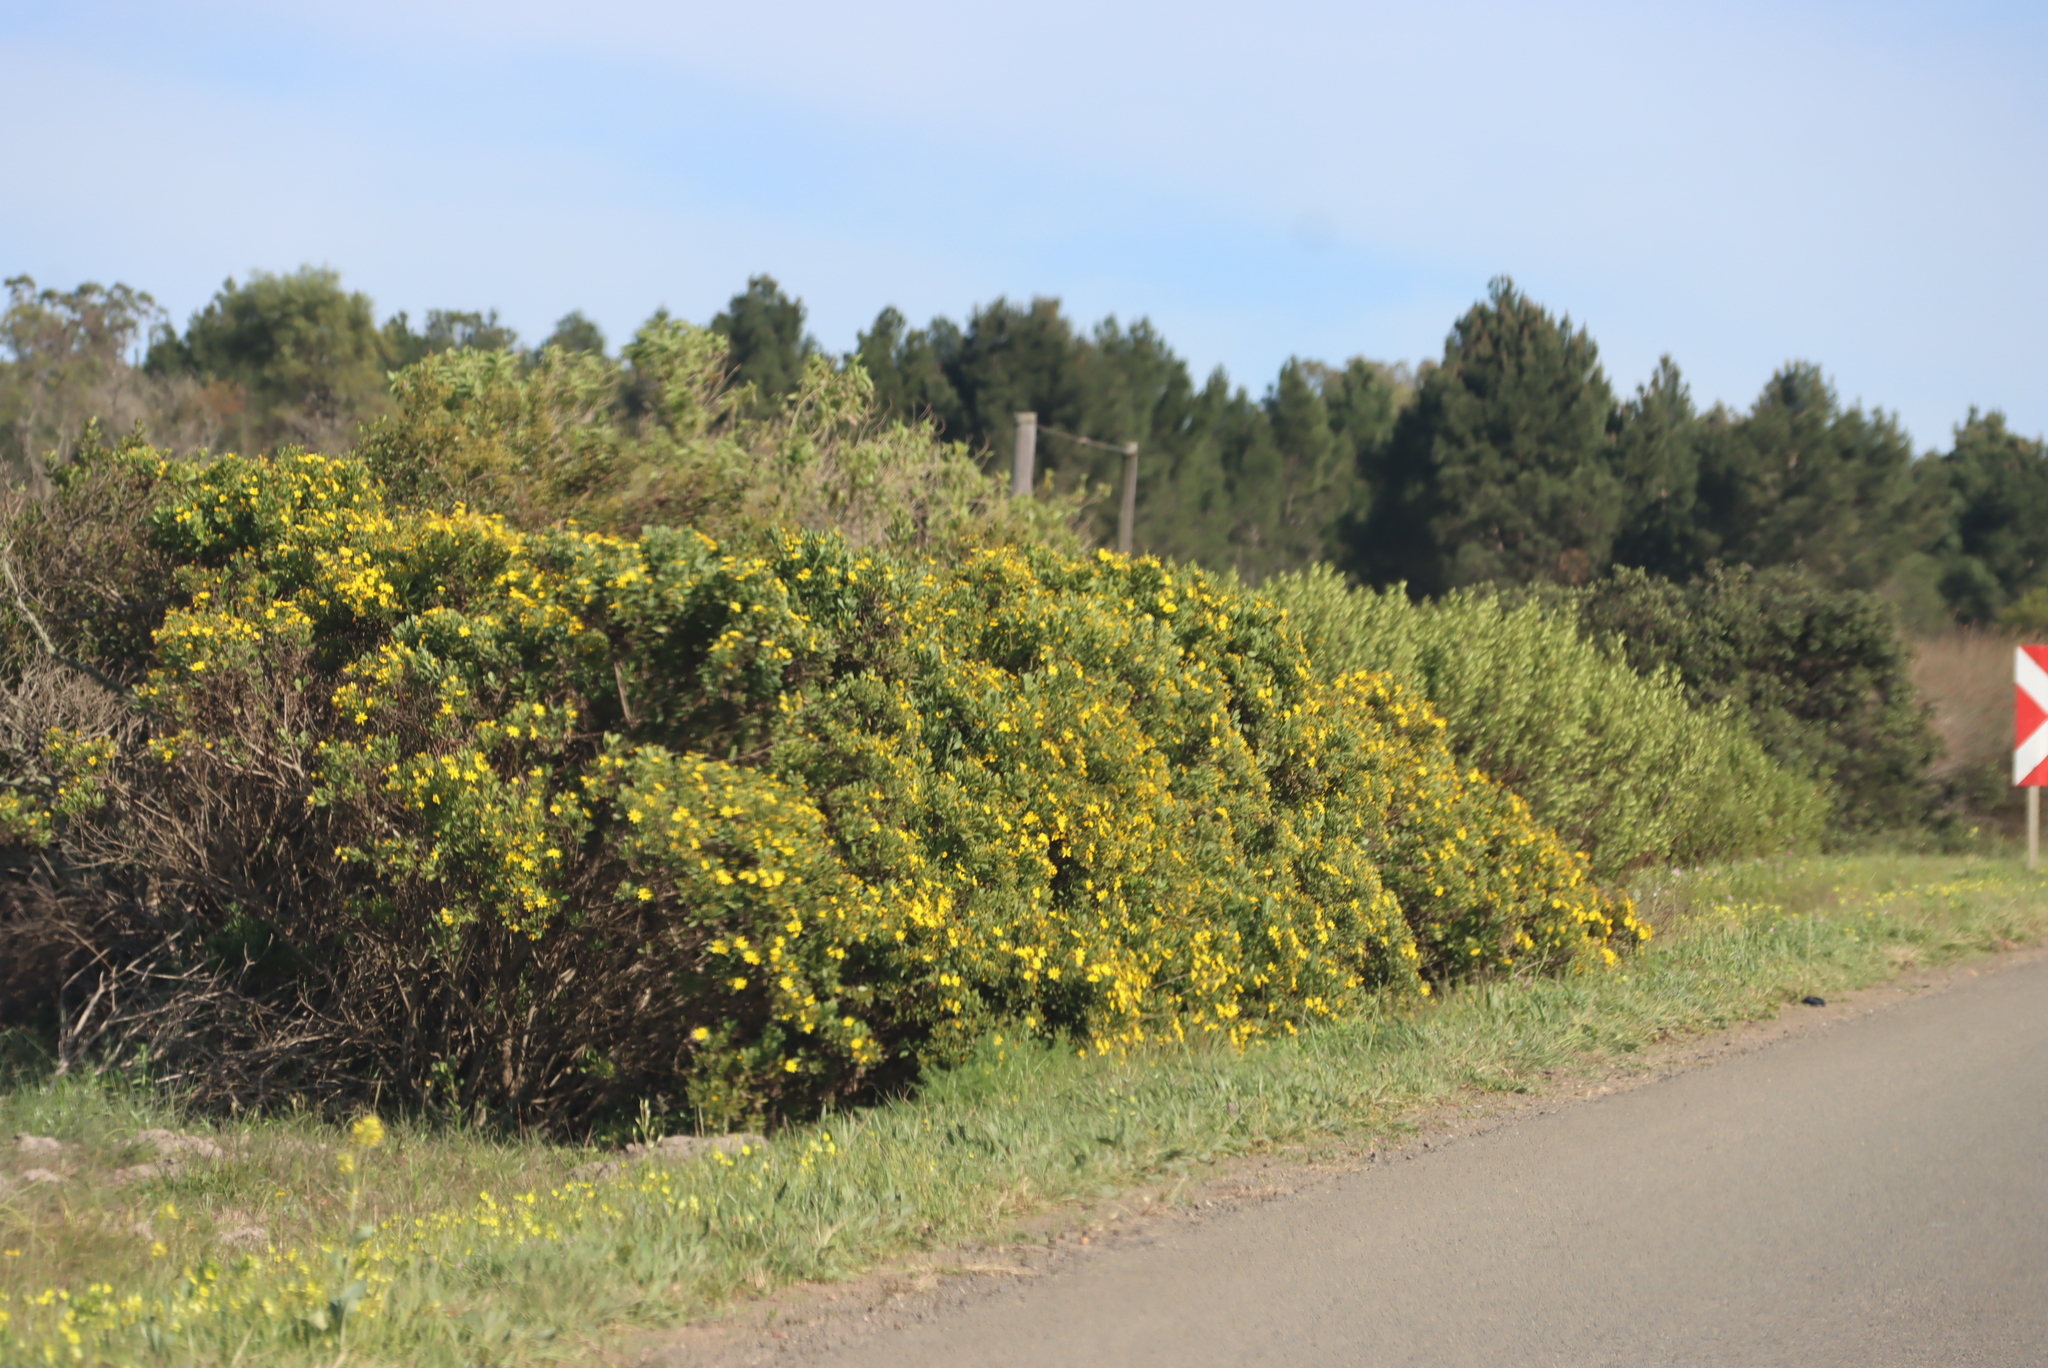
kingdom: Plantae
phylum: Tracheophyta
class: Magnoliopsida
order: Asterales
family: Asteraceae
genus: Osteospermum
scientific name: Osteospermum moniliferum
